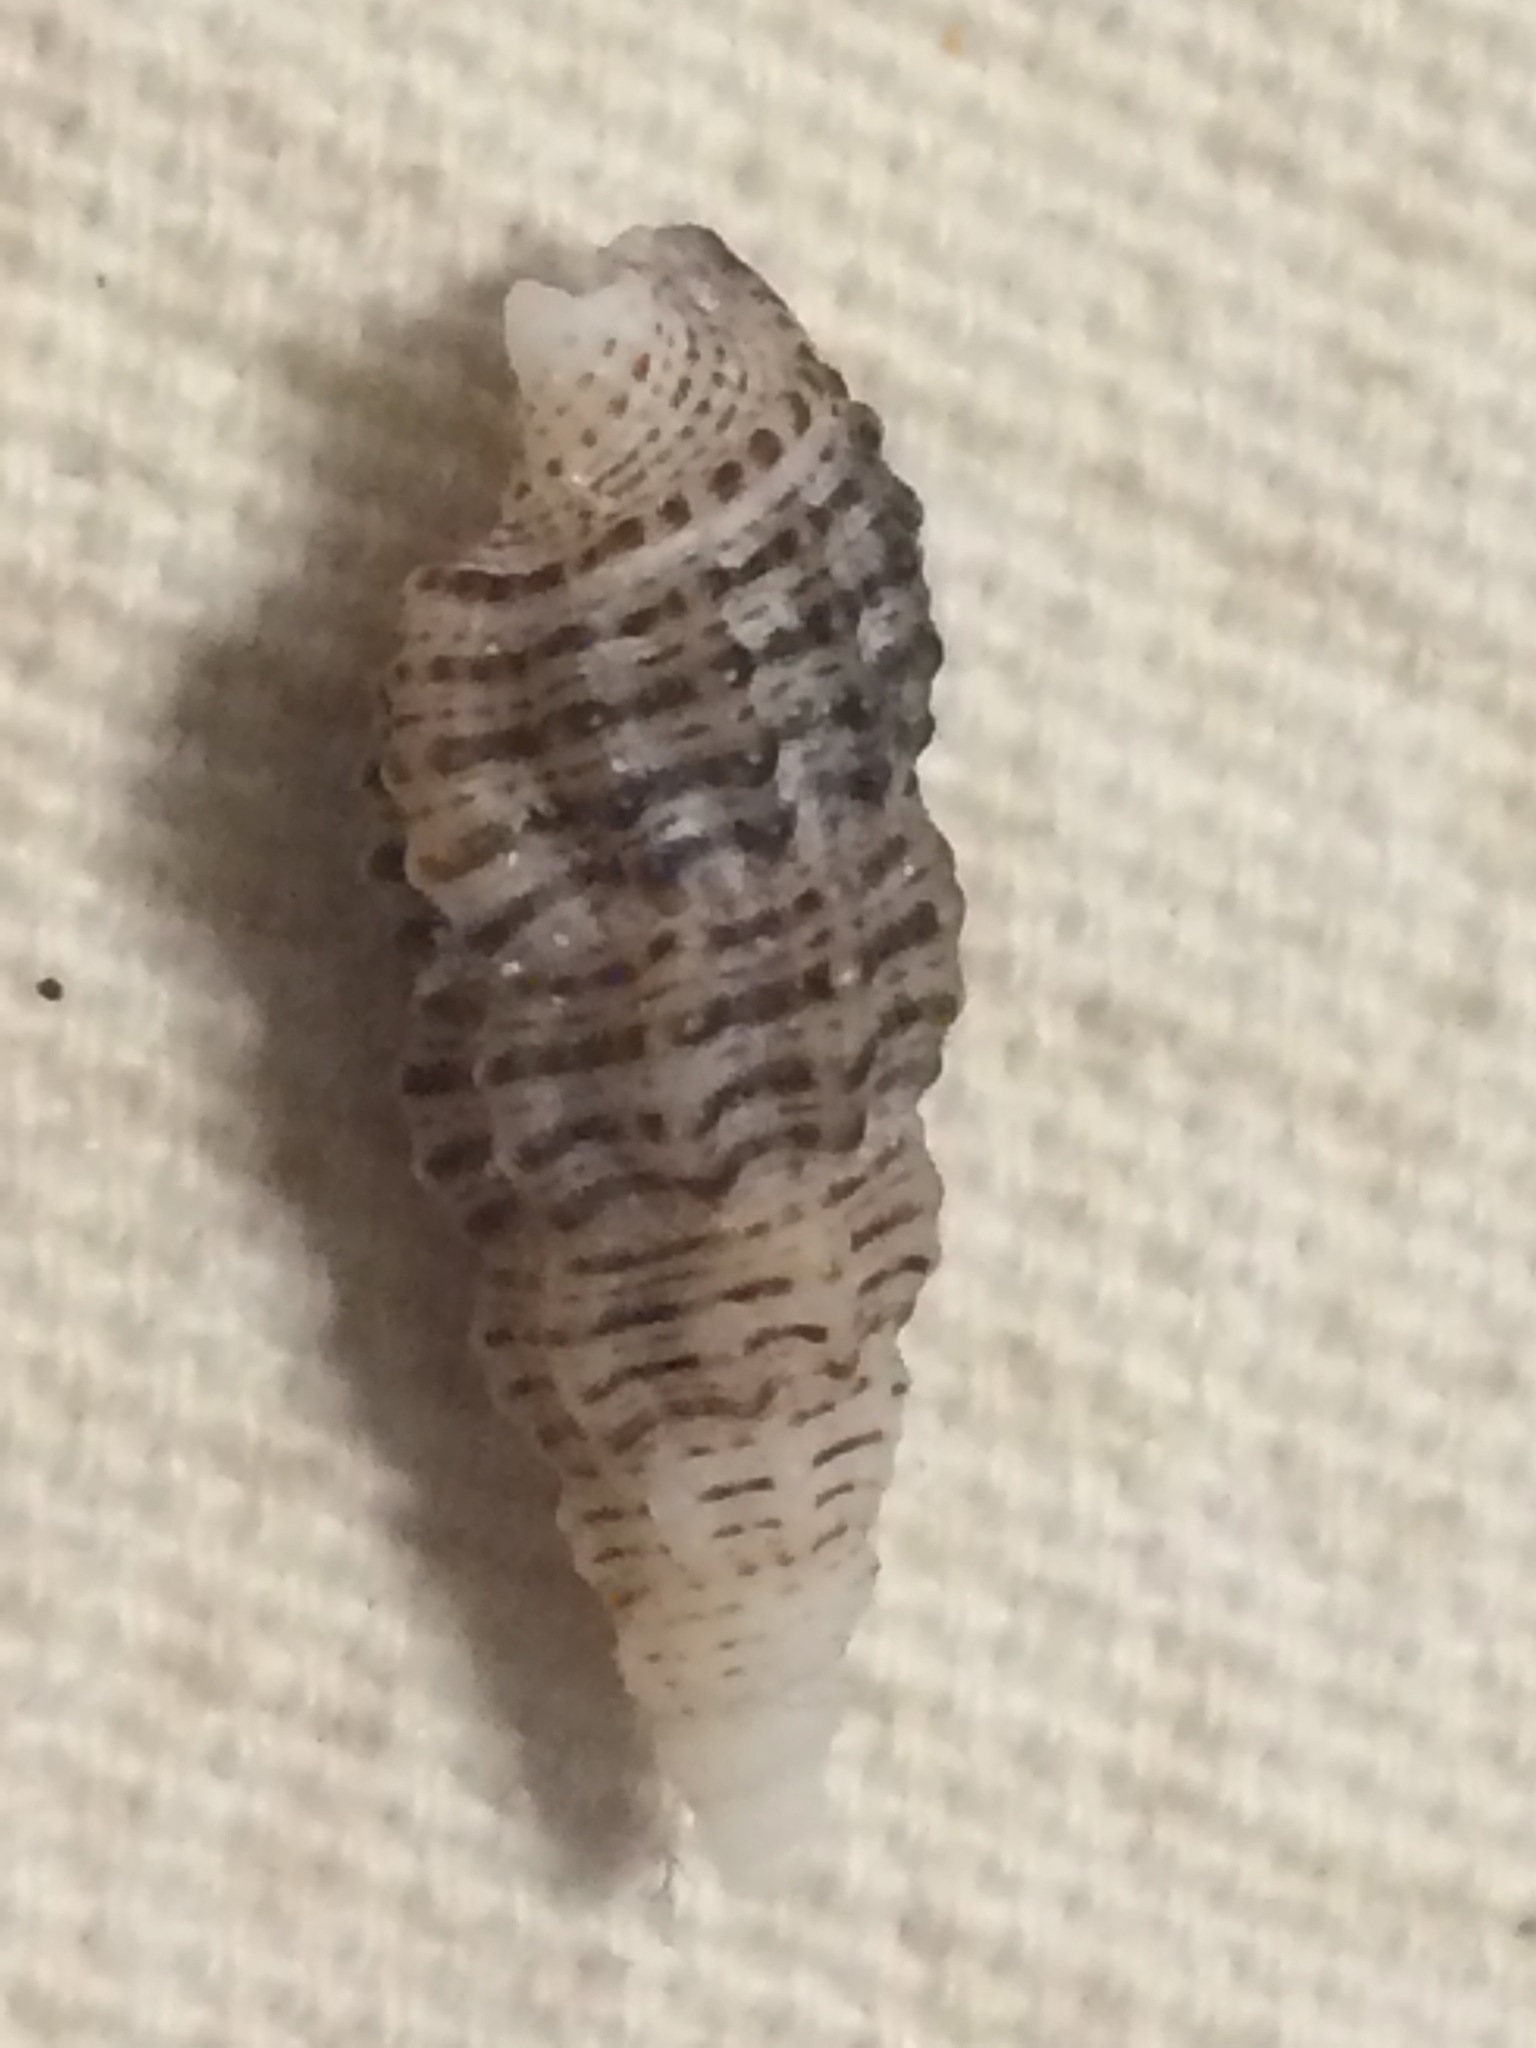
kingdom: Animalia
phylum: Mollusca
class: Gastropoda
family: Cerithiidae
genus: Cerithium
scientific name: Cerithium muscarum
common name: Fly-specked cerith
